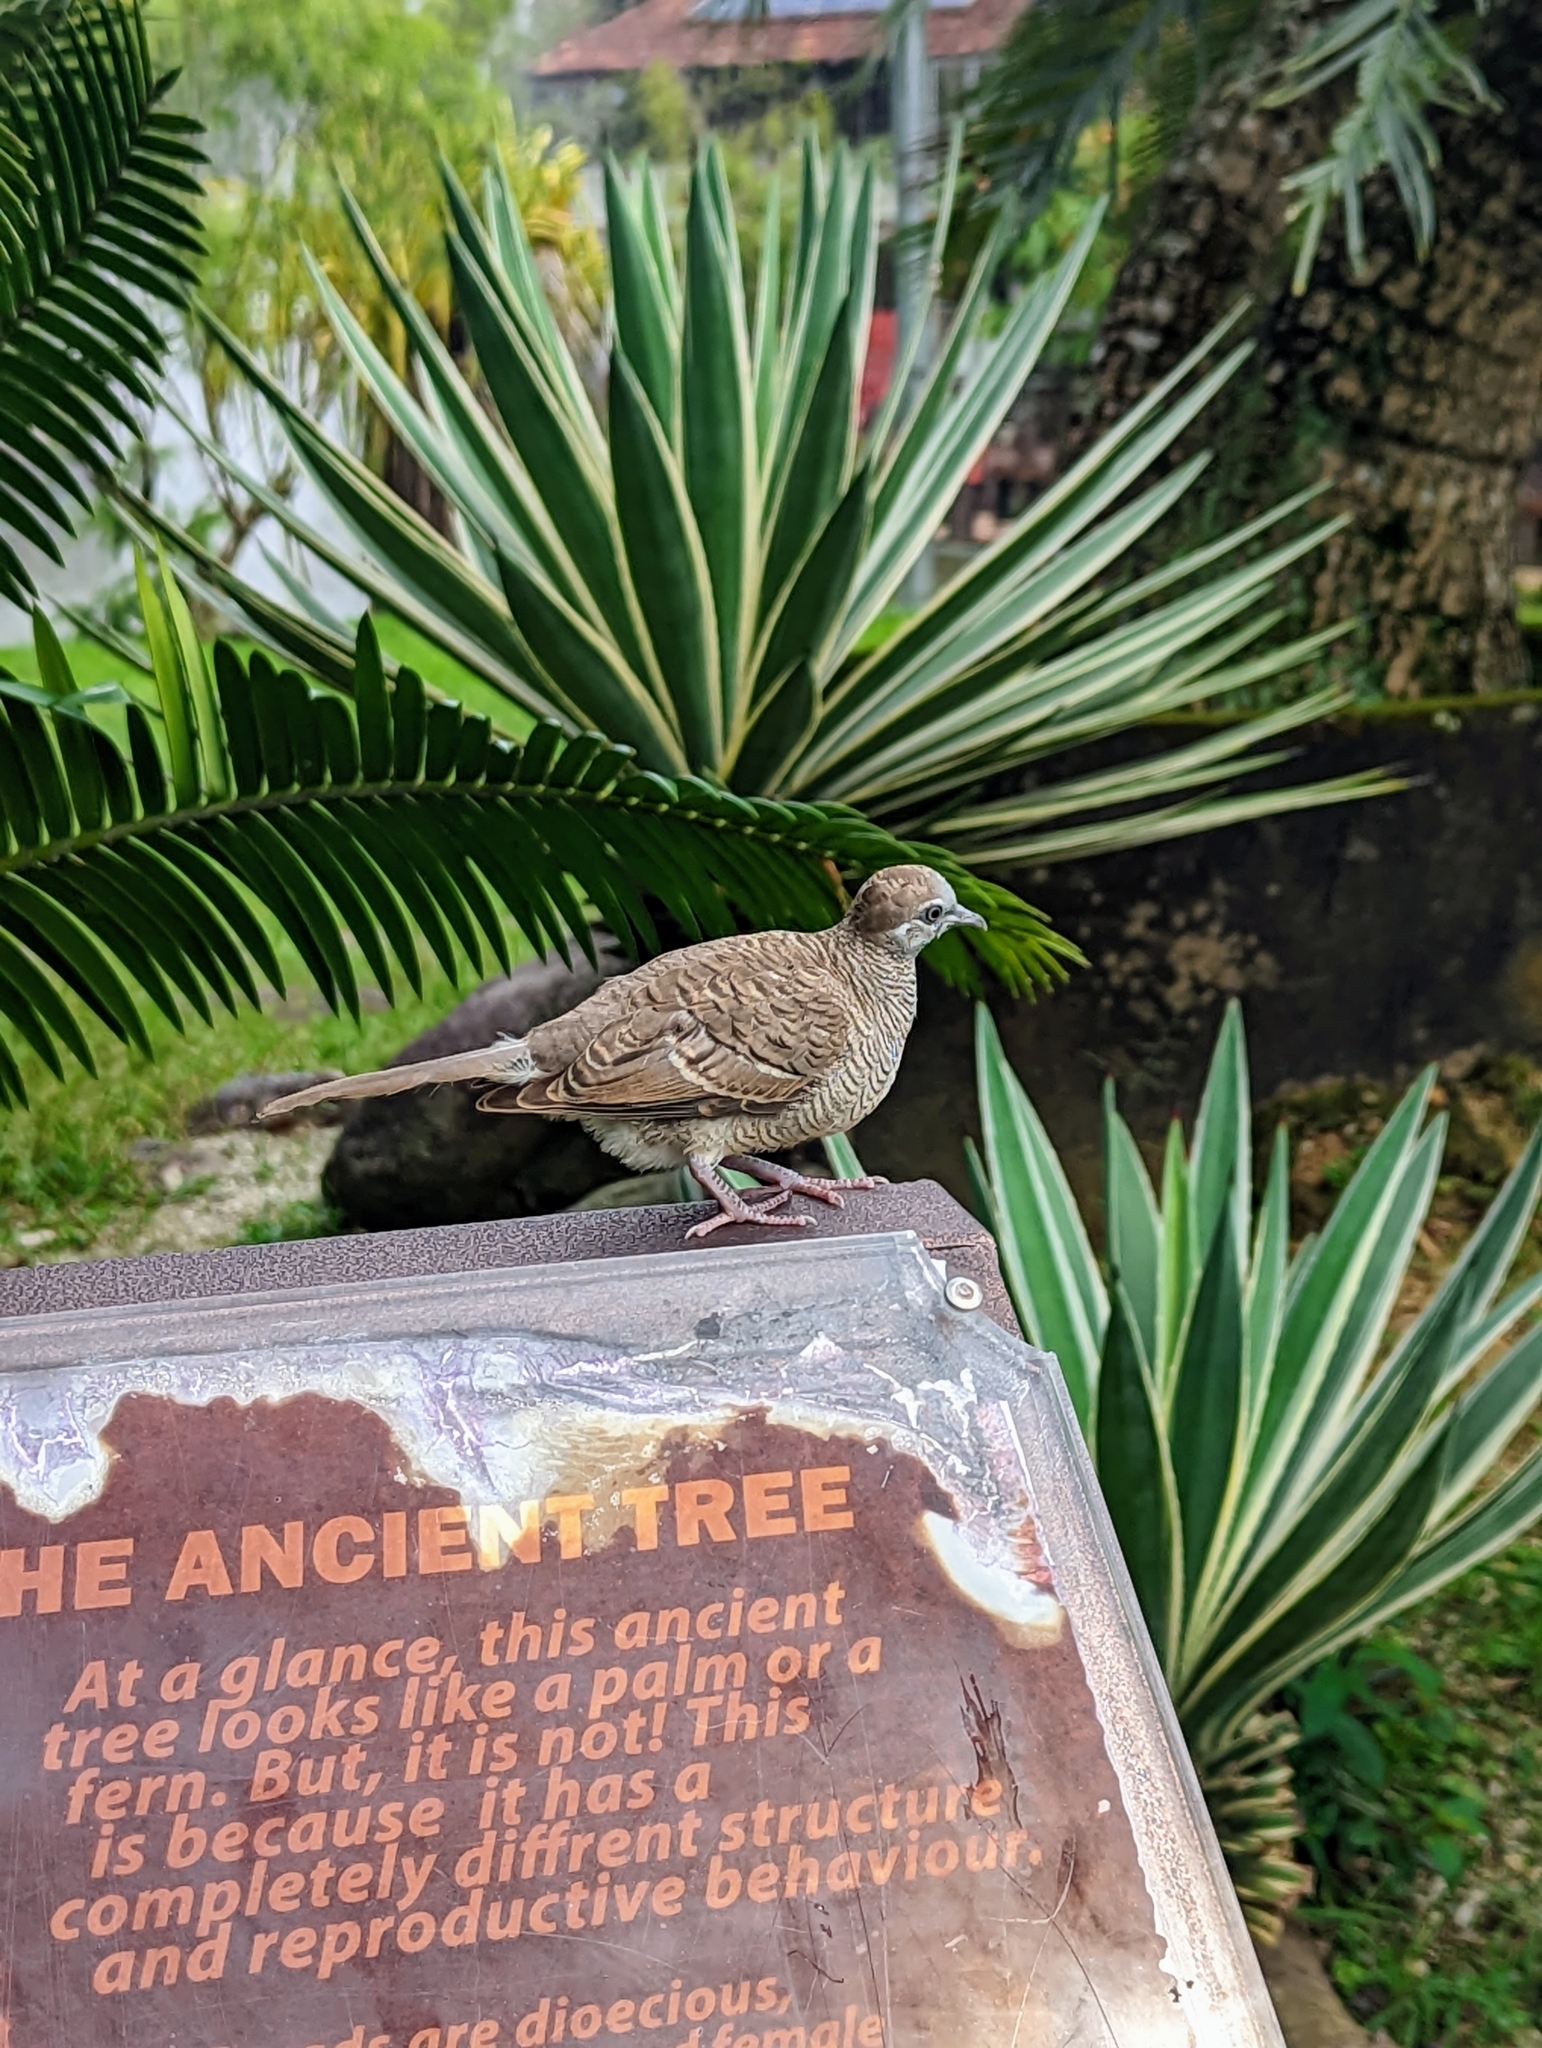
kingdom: Animalia
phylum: Chordata
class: Aves
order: Columbiformes
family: Columbidae
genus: Geopelia
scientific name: Geopelia striata
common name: Zebra dove
